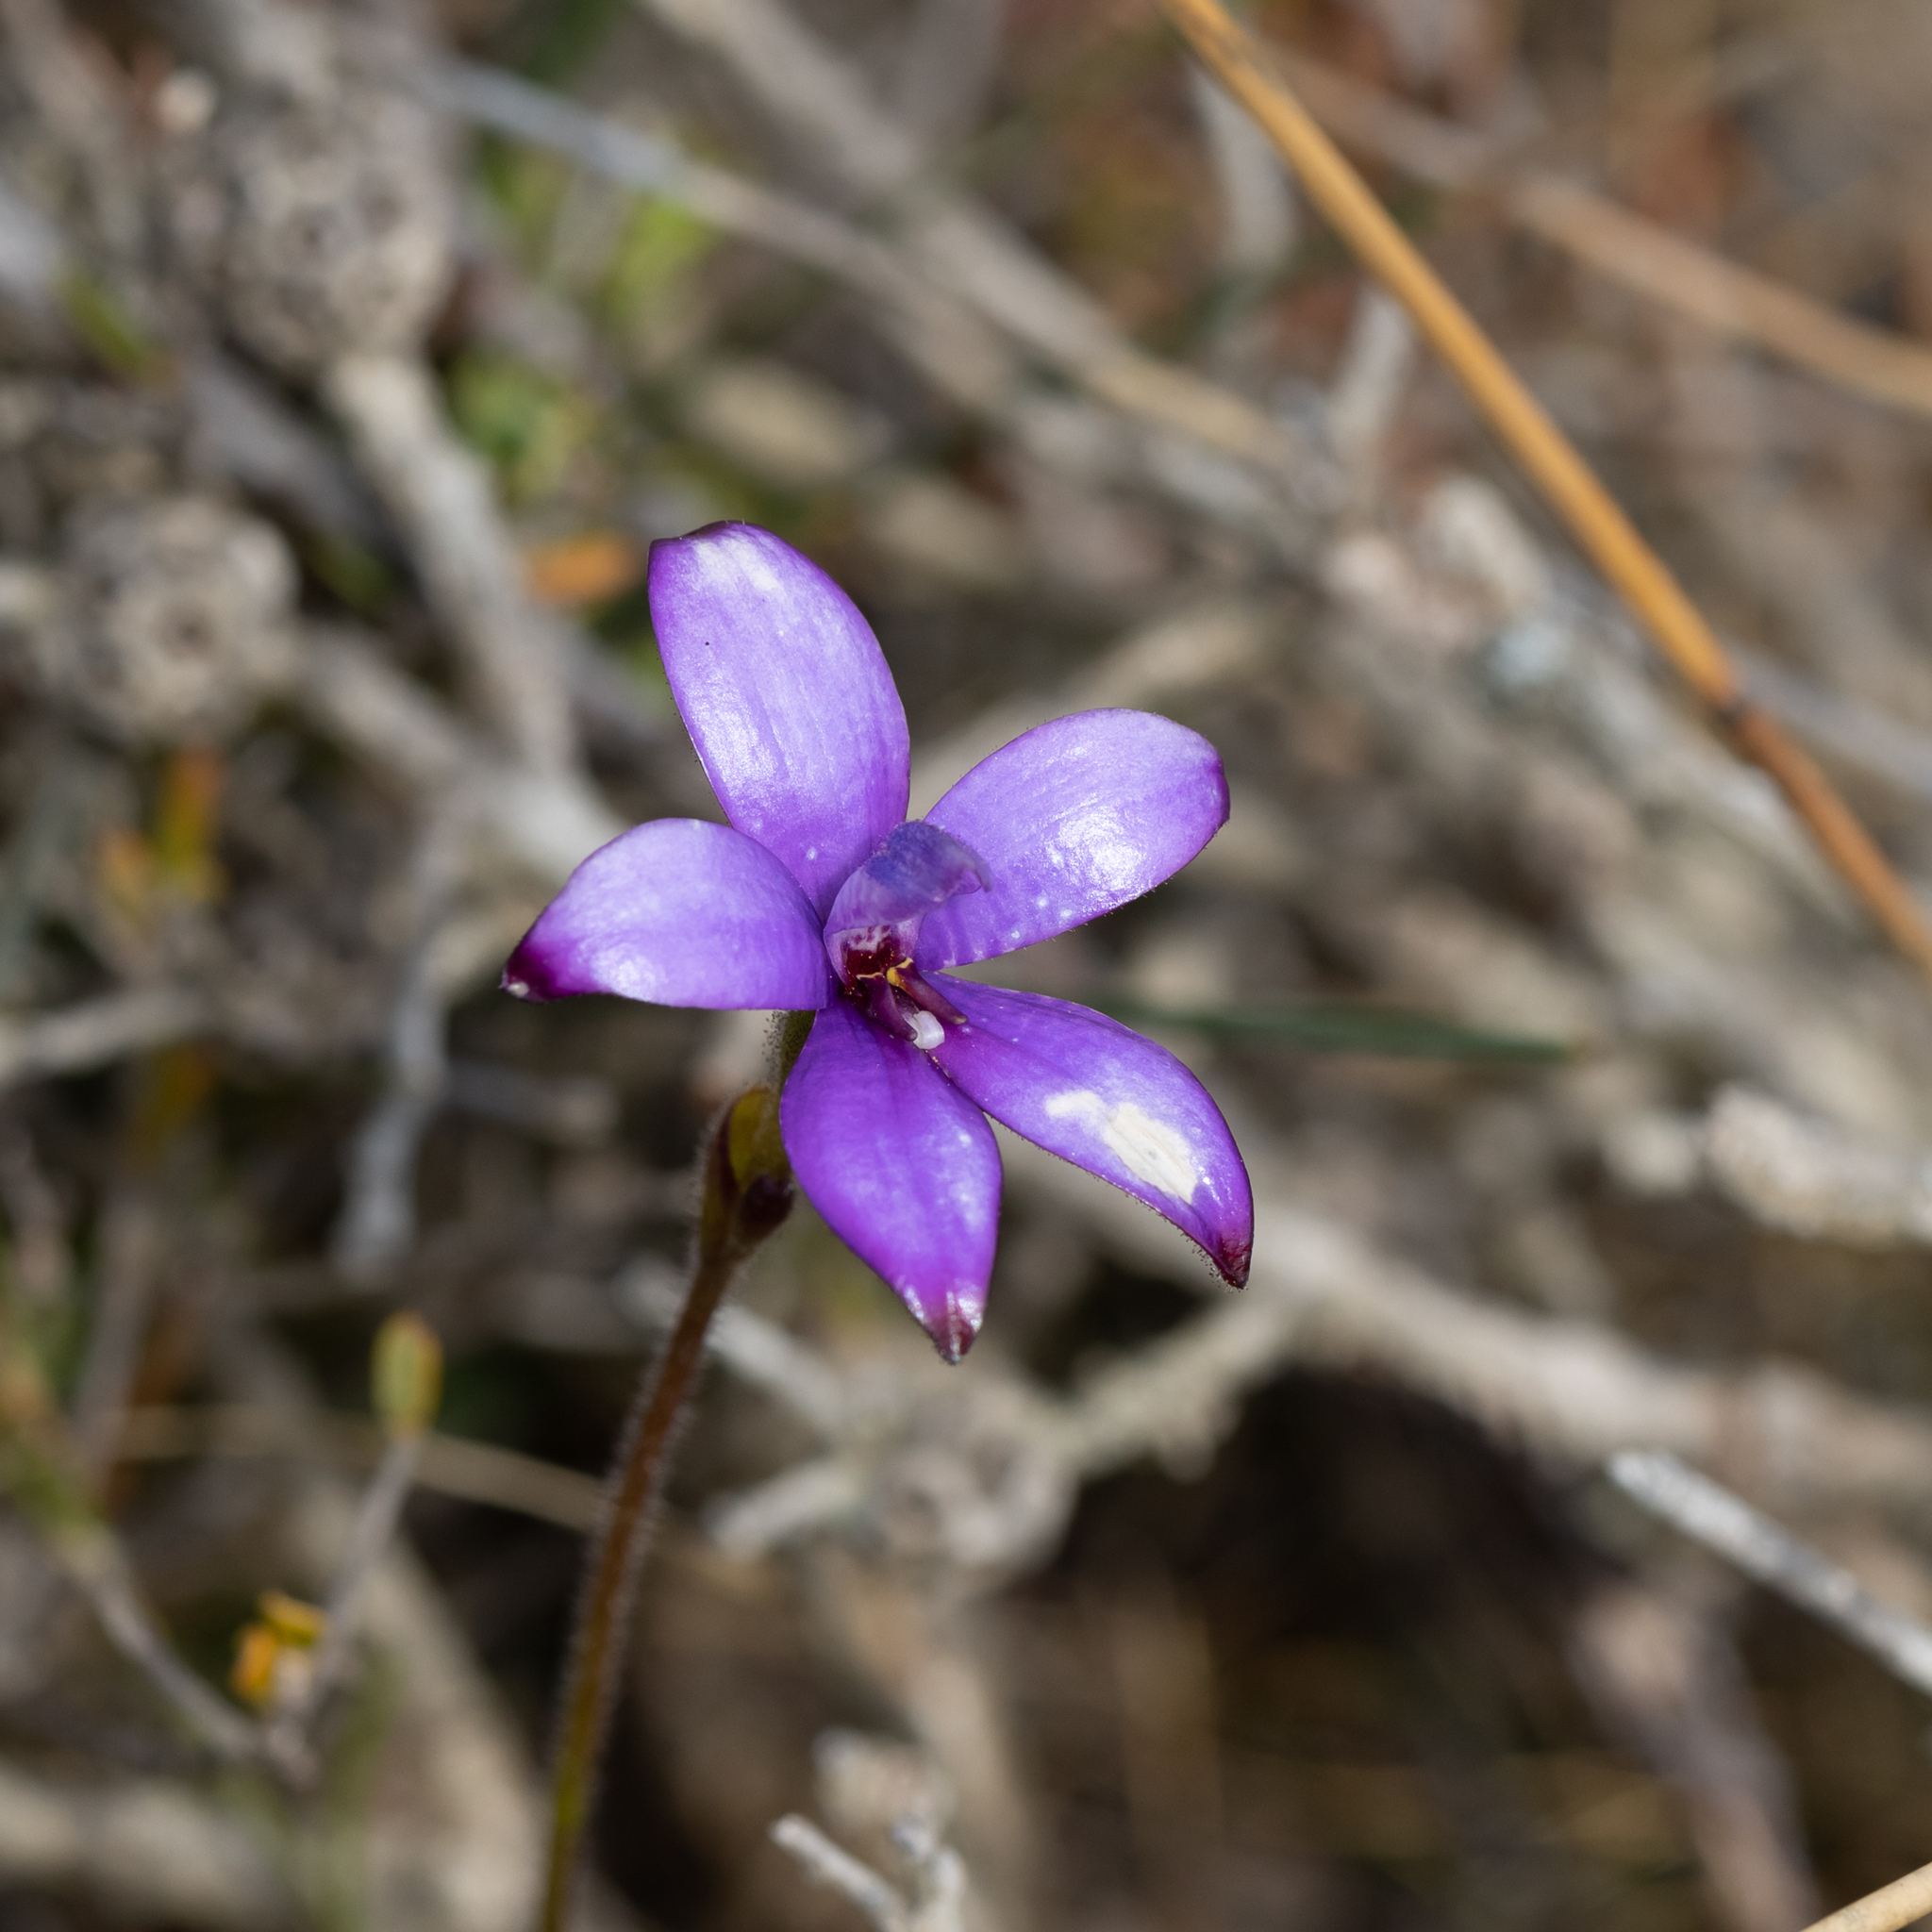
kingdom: Plantae
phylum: Tracheophyta
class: Liliopsida
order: Asparagales
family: Orchidaceae
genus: Caladenia
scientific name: Caladenia brunonis
